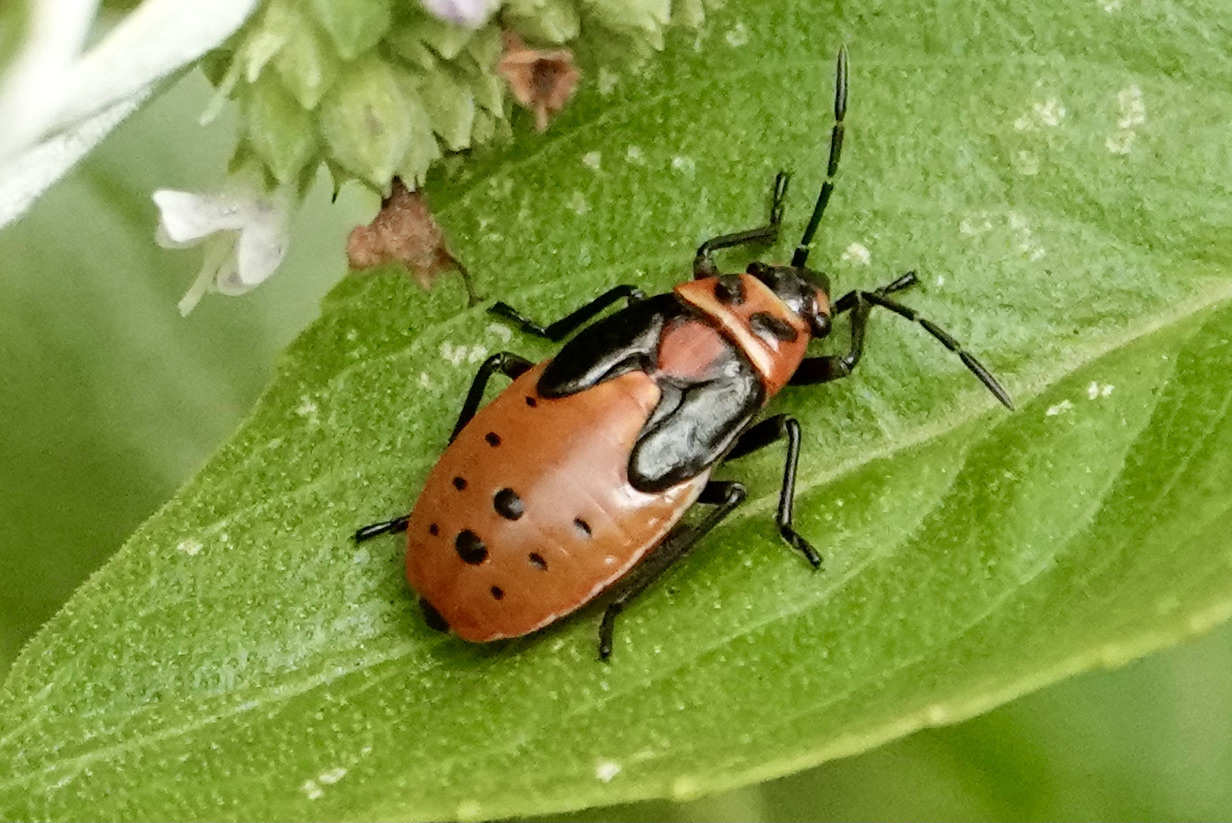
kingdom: Animalia
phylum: Arthropoda
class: Insecta
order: Hemiptera
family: Lygaeidae
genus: Lygaeus
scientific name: Lygaeus kalmii
